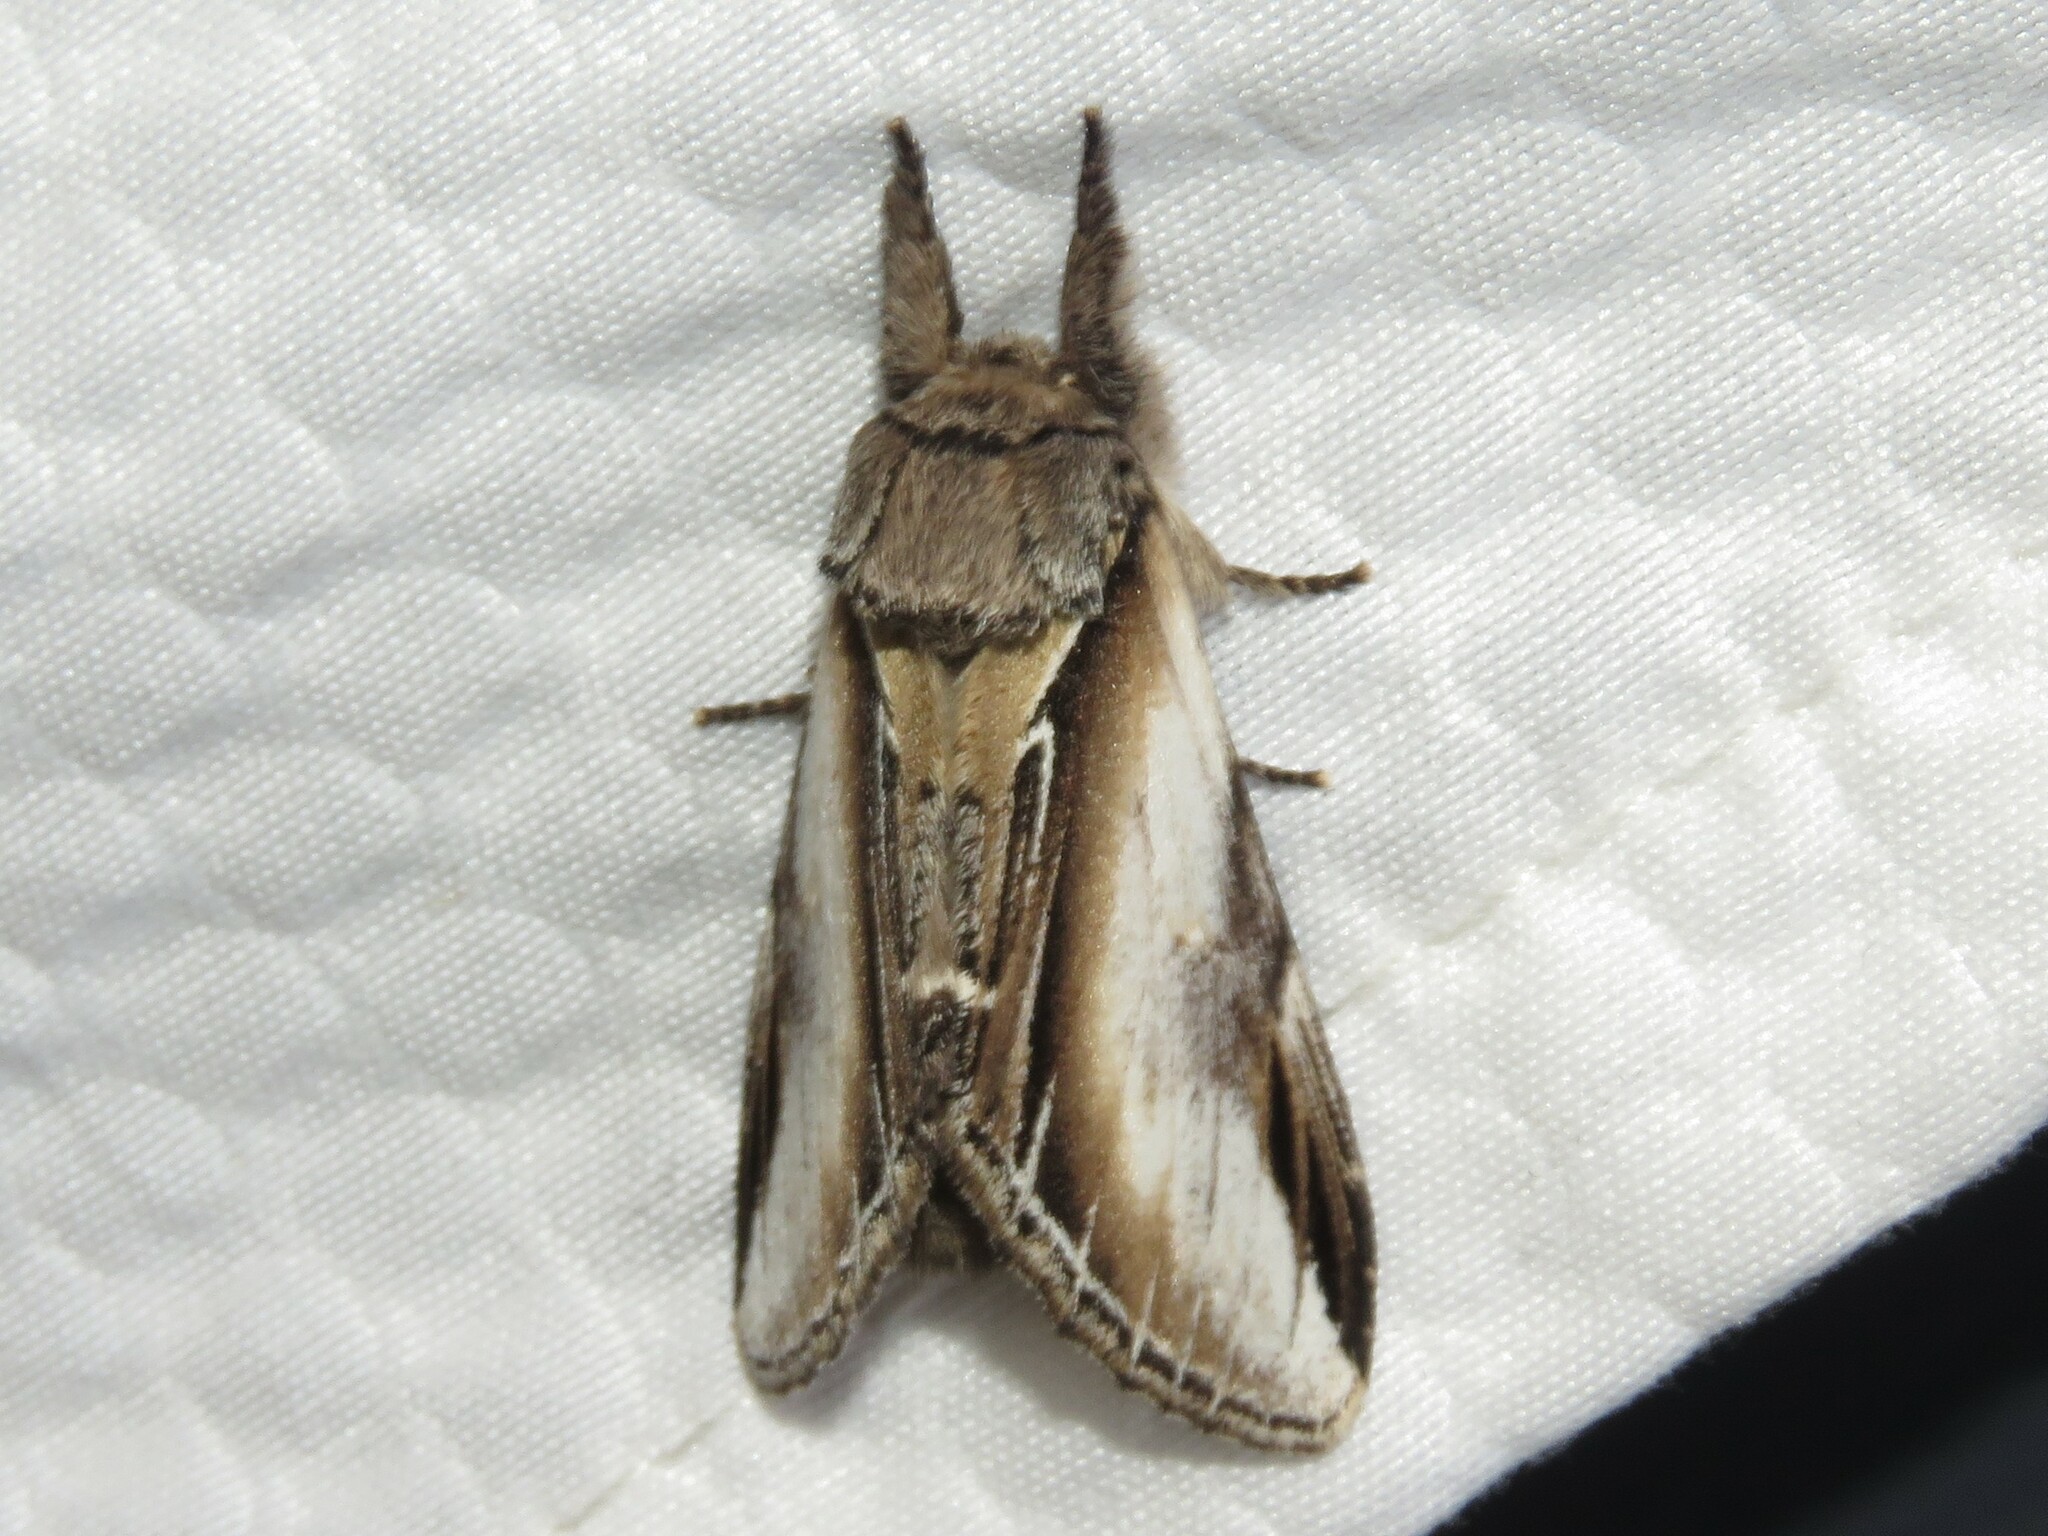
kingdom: Animalia
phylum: Arthropoda
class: Insecta
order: Lepidoptera
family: Notodontidae
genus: Pheosia
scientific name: Pheosia rimosa
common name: Black-rimmed prominent
